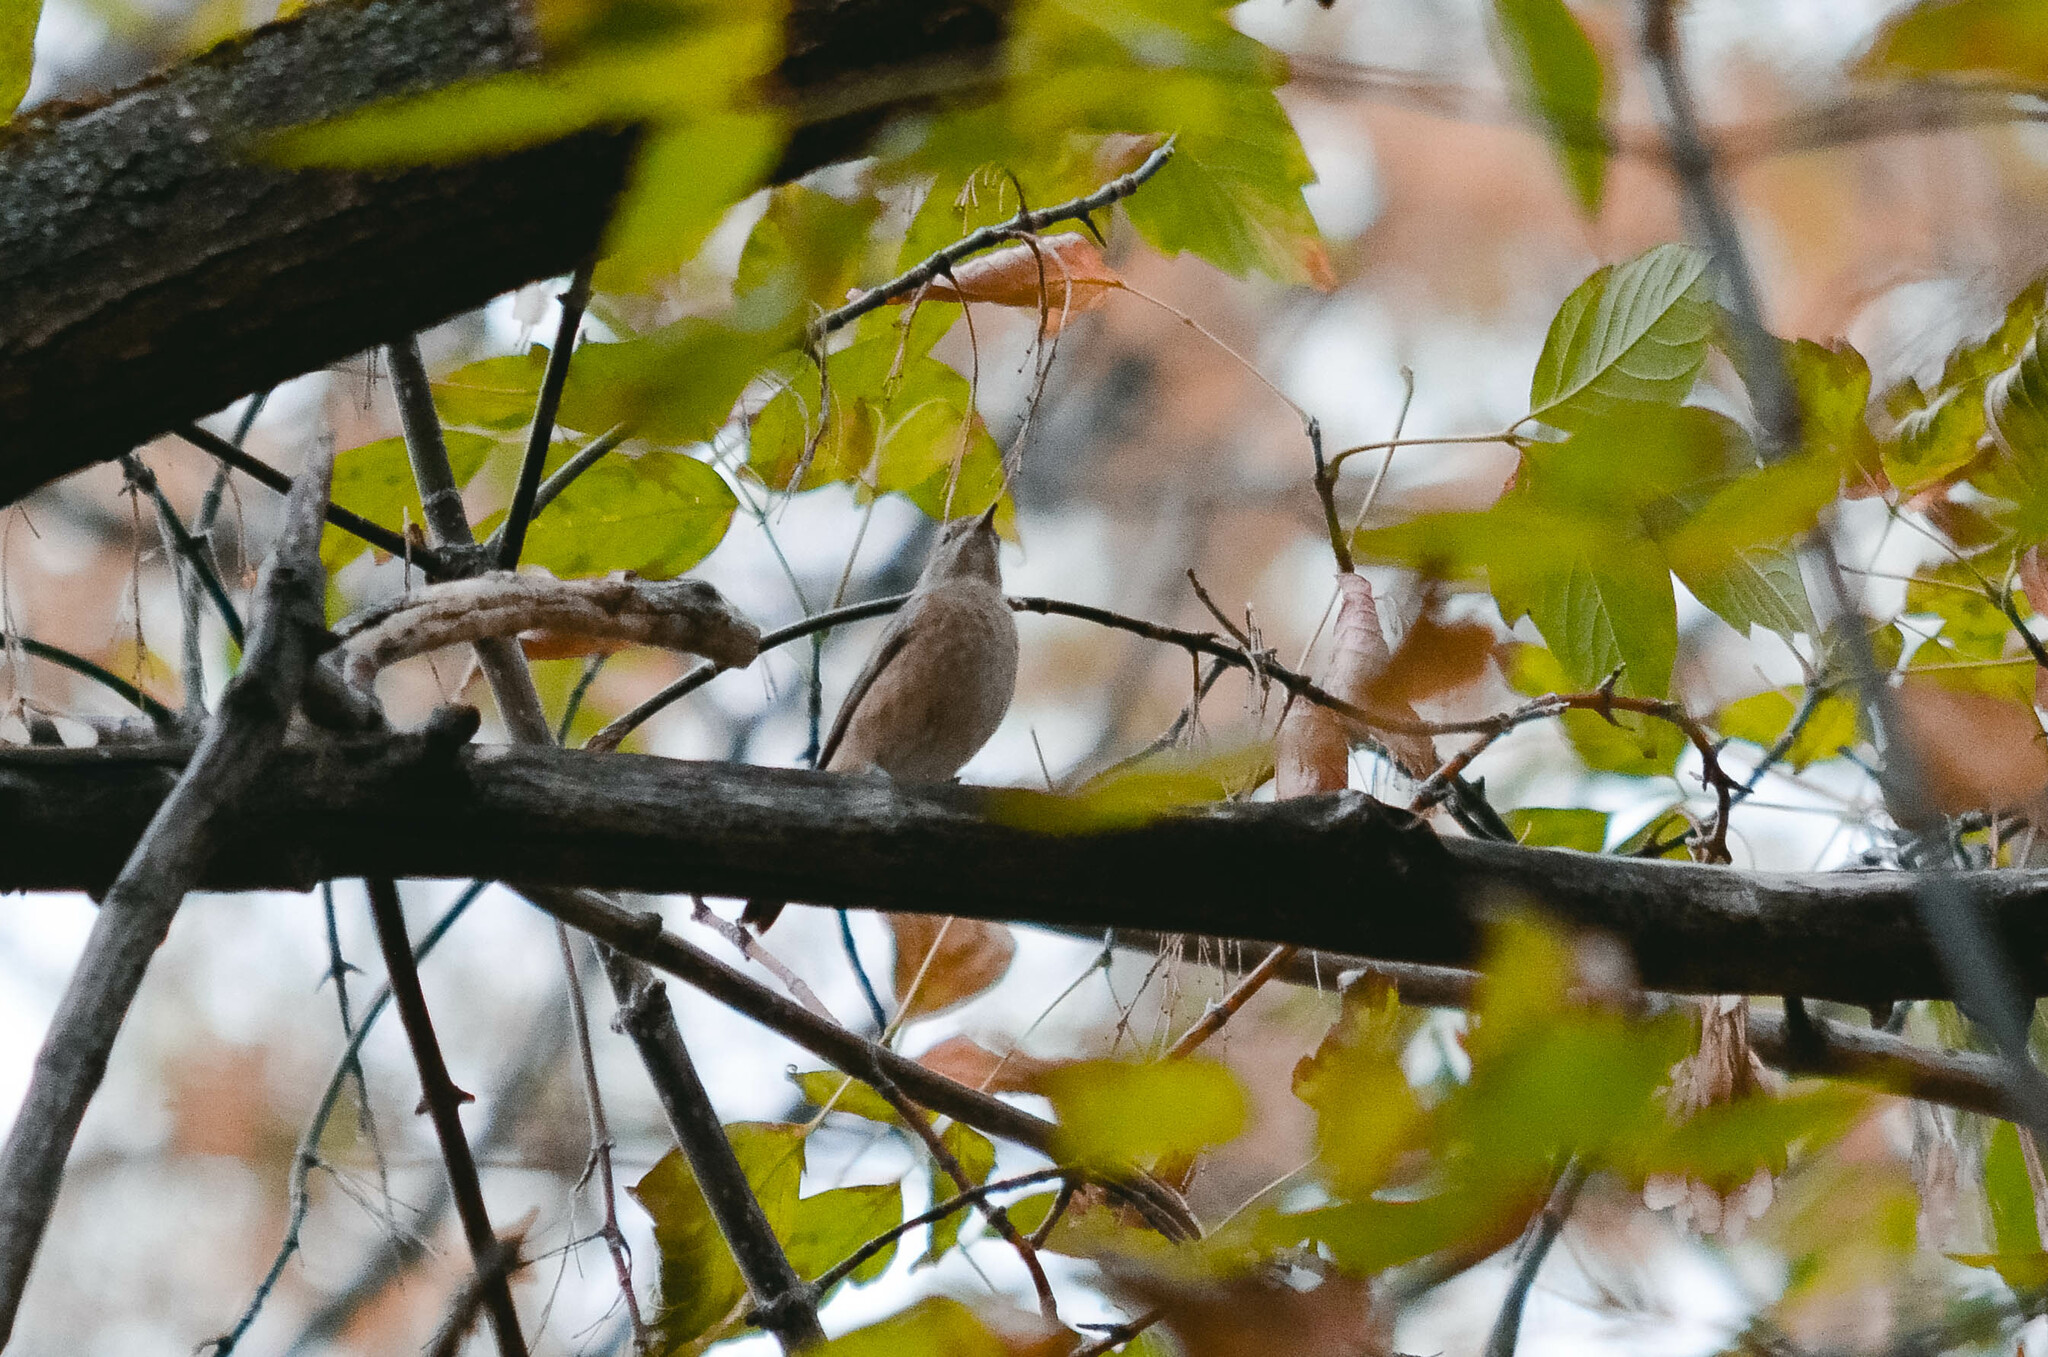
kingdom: Animalia
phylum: Chordata
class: Aves
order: Passeriformes
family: Muscicapidae
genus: Phoenicurus
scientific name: Phoenicurus phoenicurus
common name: Common redstart
